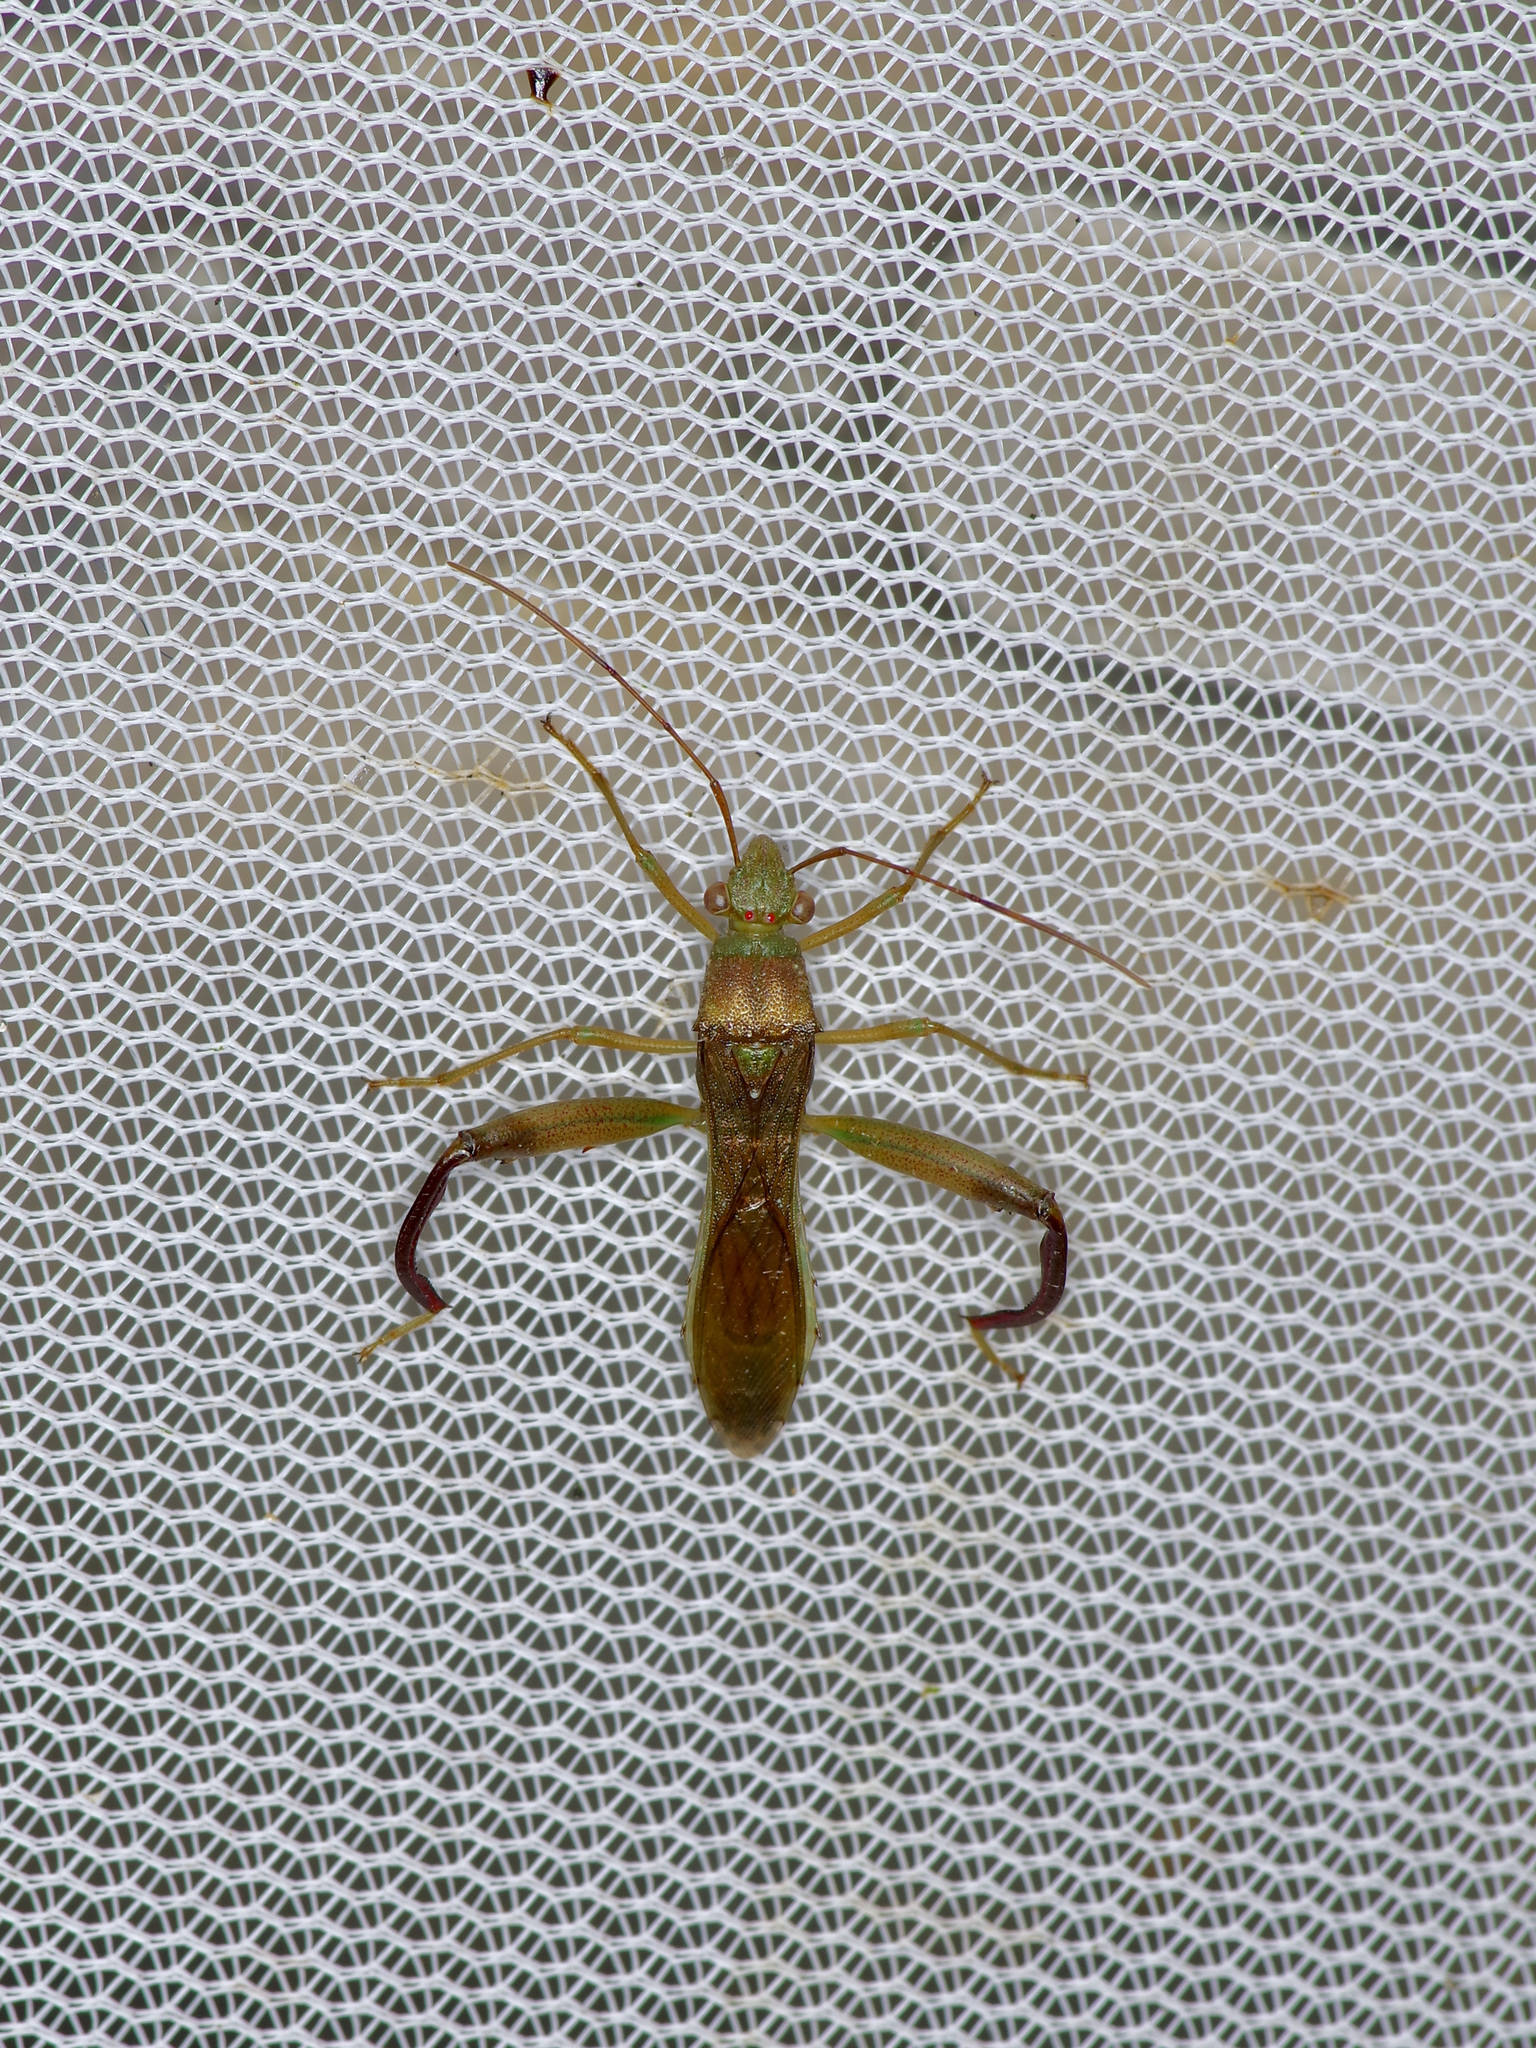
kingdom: Animalia
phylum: Arthropoda
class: Insecta
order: Hemiptera
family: Alydidae
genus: Hyalymenus
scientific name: Hyalymenus tarsatus
